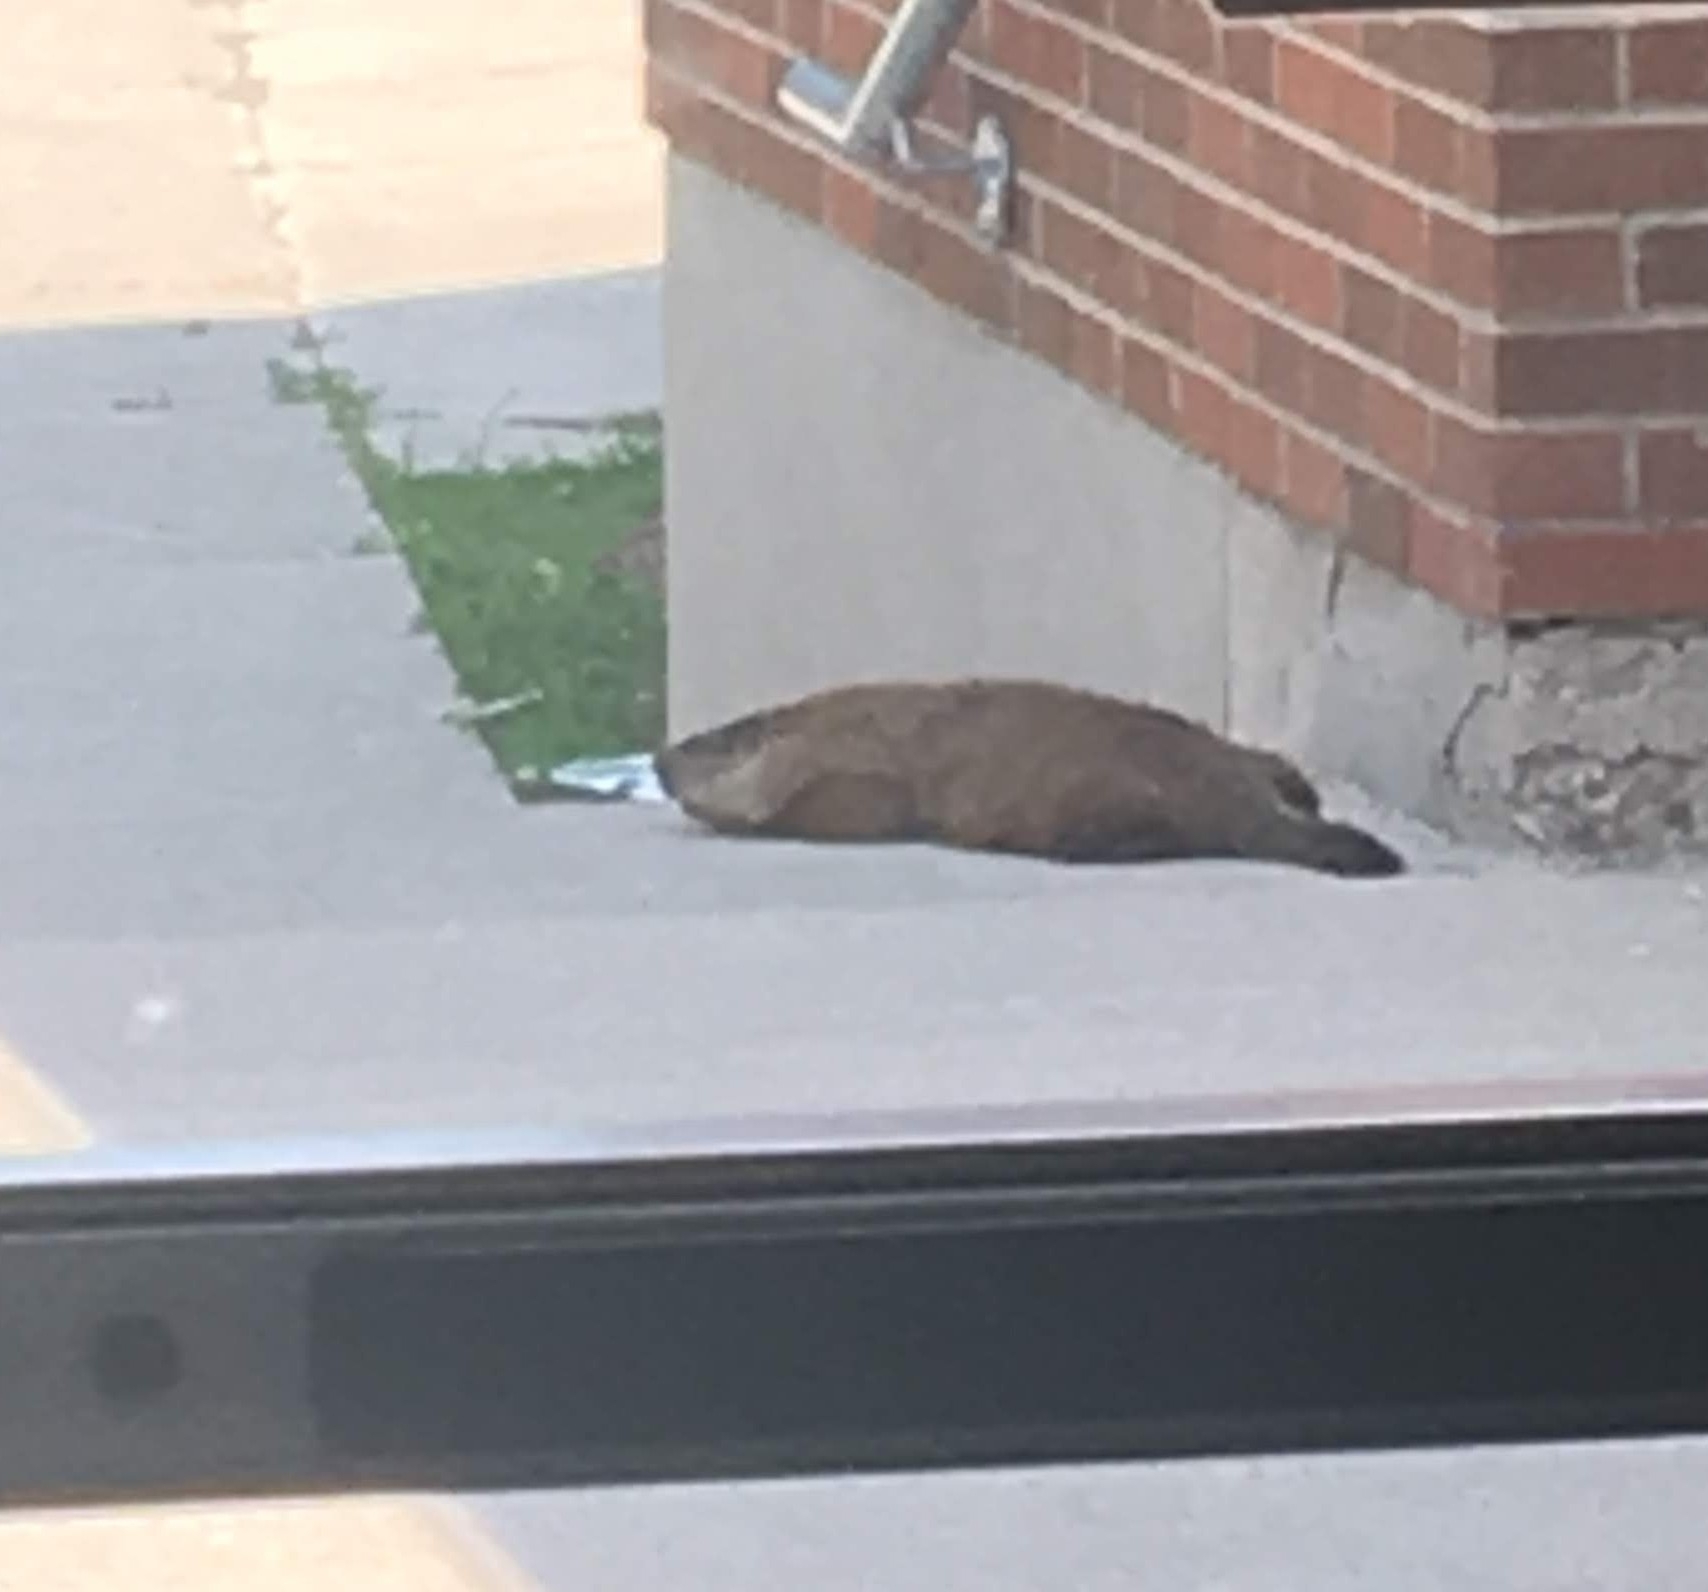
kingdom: Animalia
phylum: Chordata
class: Mammalia
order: Rodentia
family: Sciuridae
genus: Marmota
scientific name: Marmota monax
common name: Groundhog
